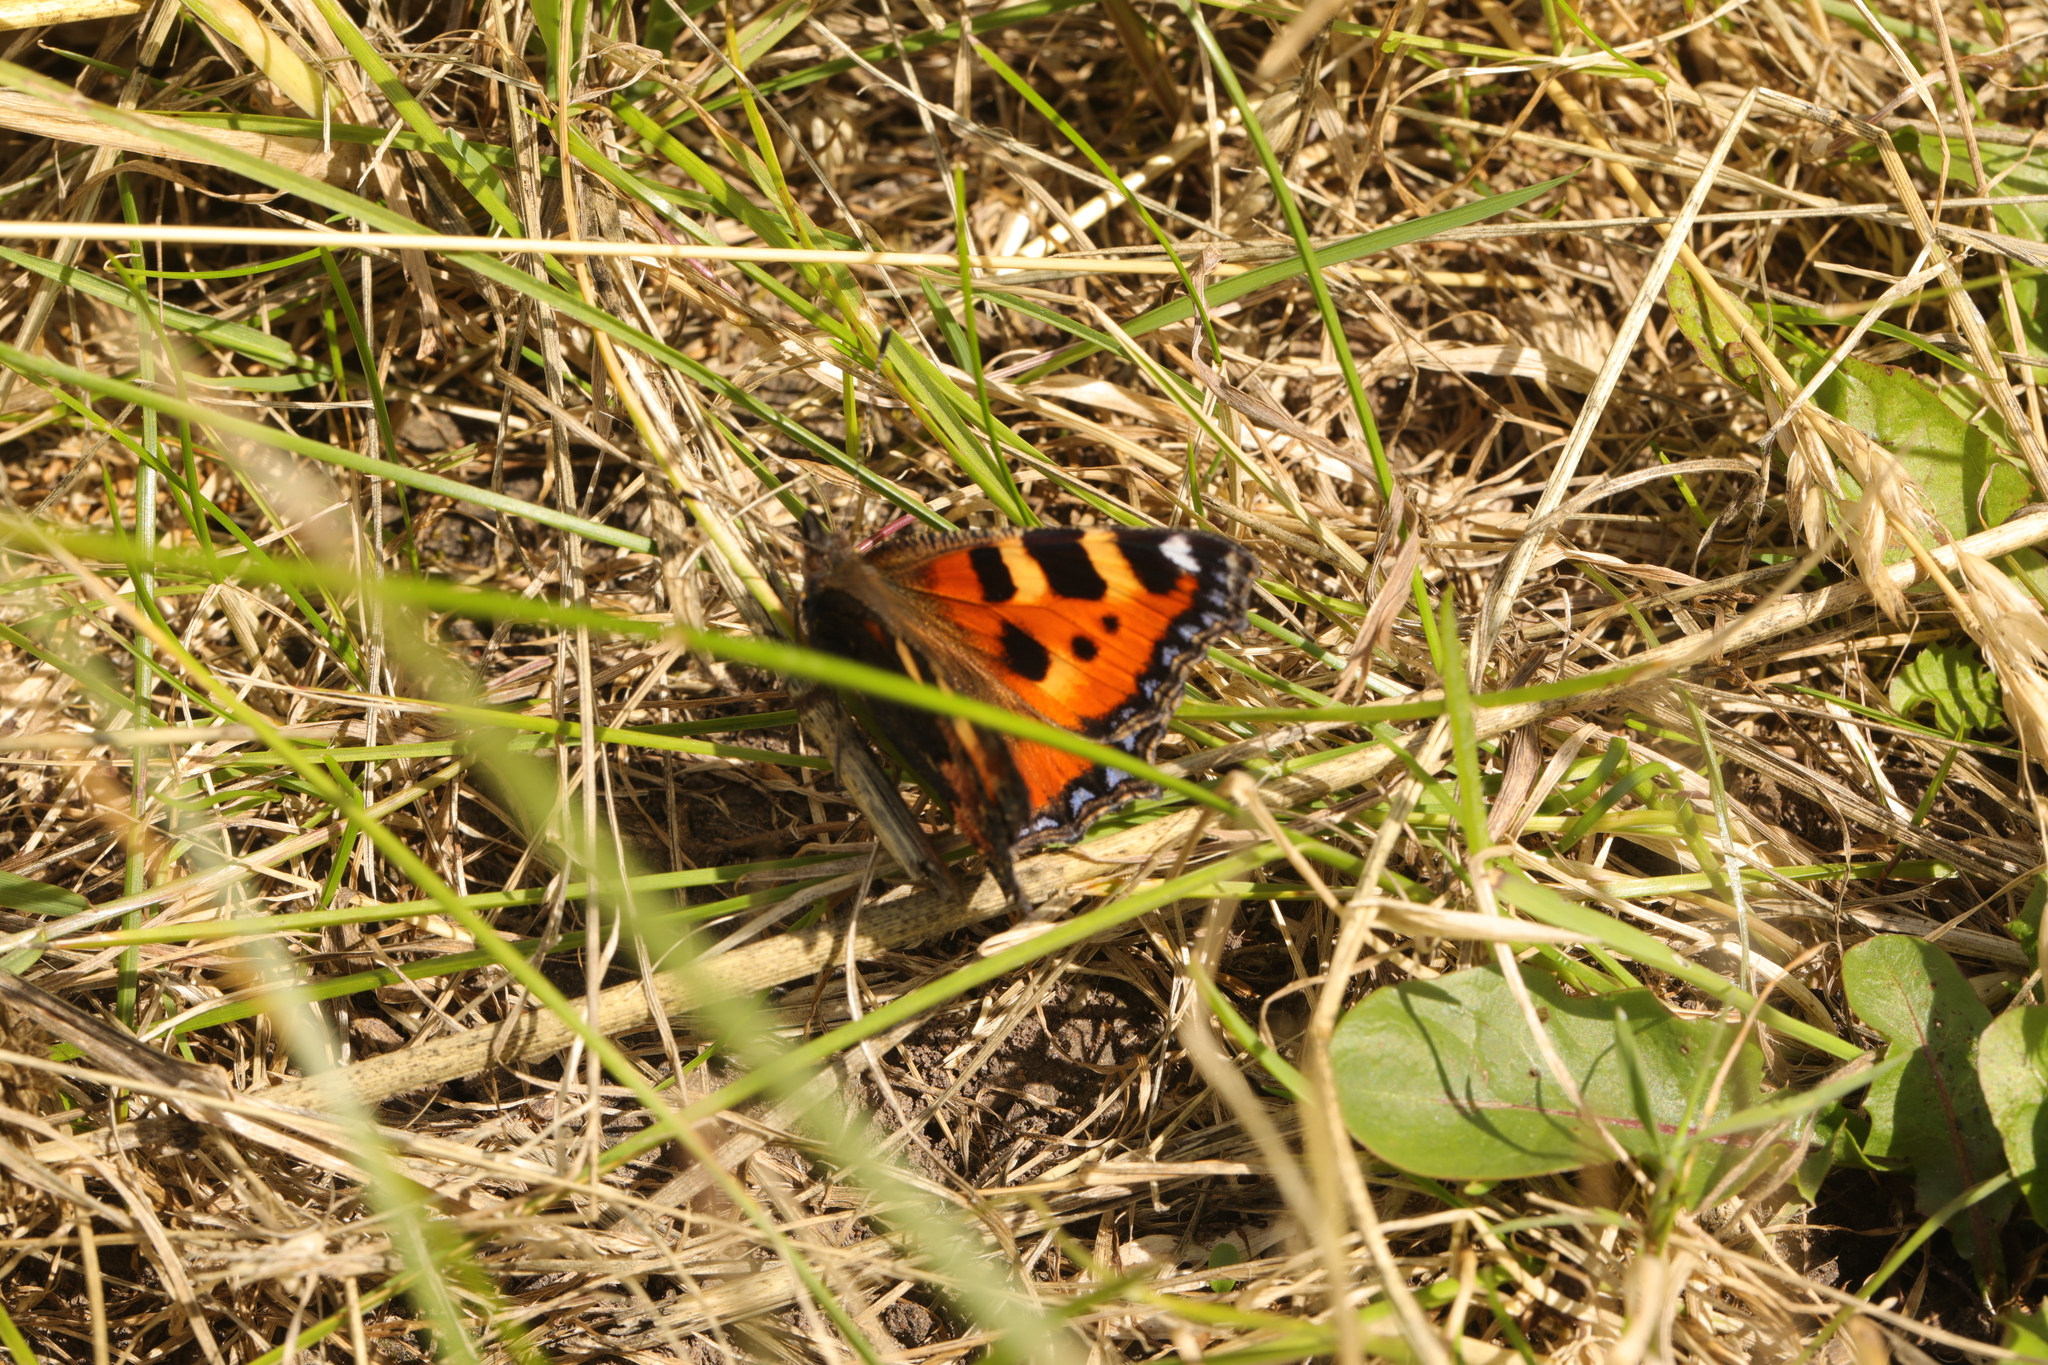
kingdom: Animalia
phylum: Arthropoda
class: Insecta
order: Lepidoptera
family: Nymphalidae
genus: Aglais
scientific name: Aglais urticae
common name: Small tortoiseshell
